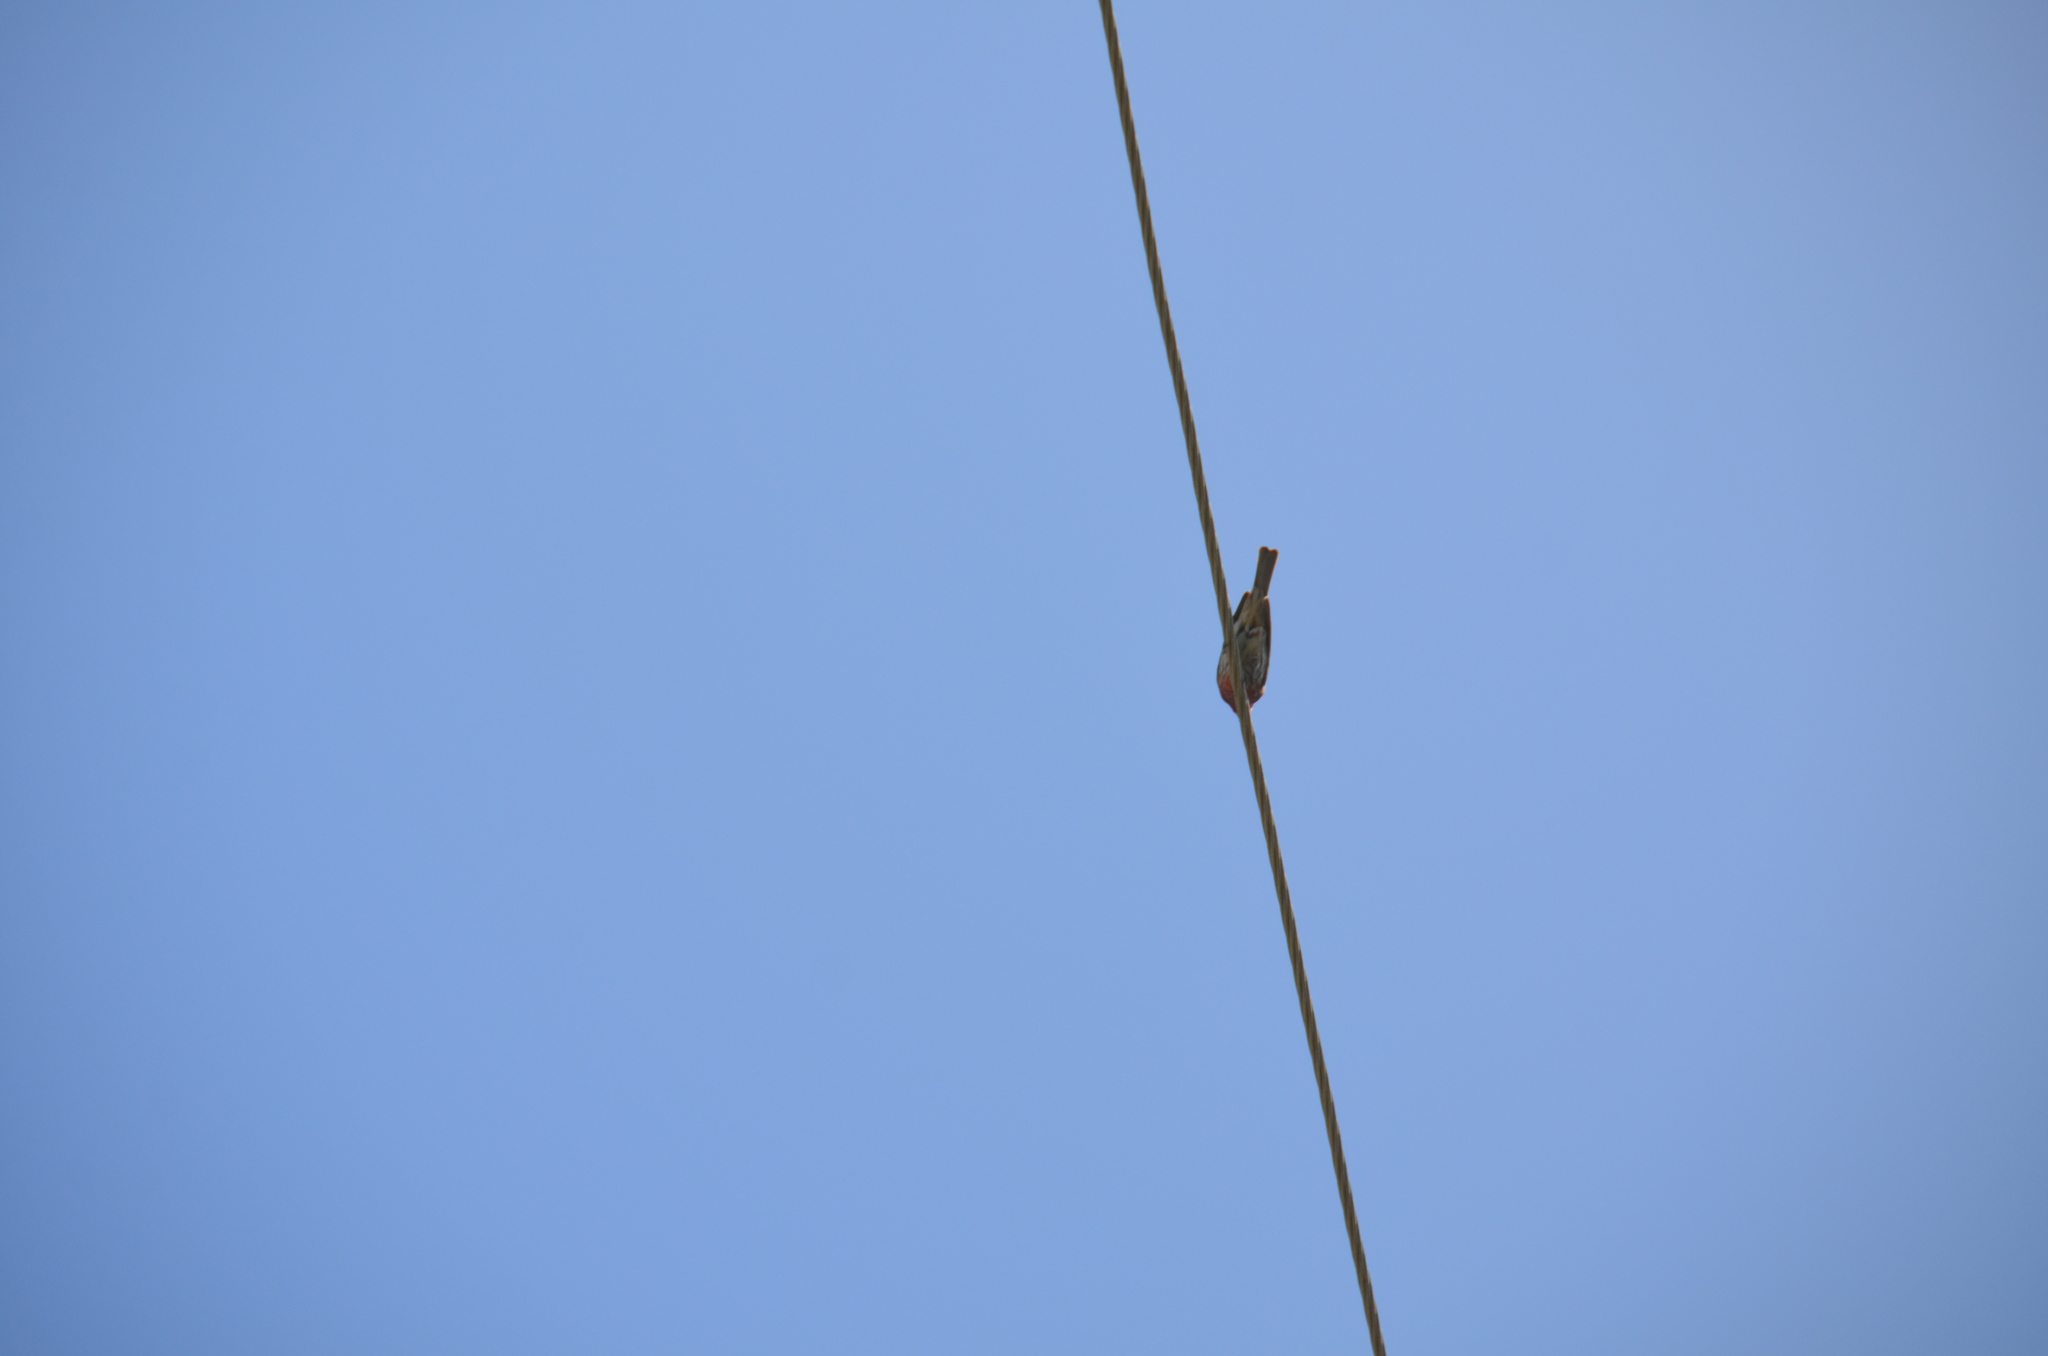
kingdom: Animalia
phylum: Chordata
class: Aves
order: Passeriformes
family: Fringillidae
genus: Haemorhous
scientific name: Haemorhous mexicanus
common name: House finch
